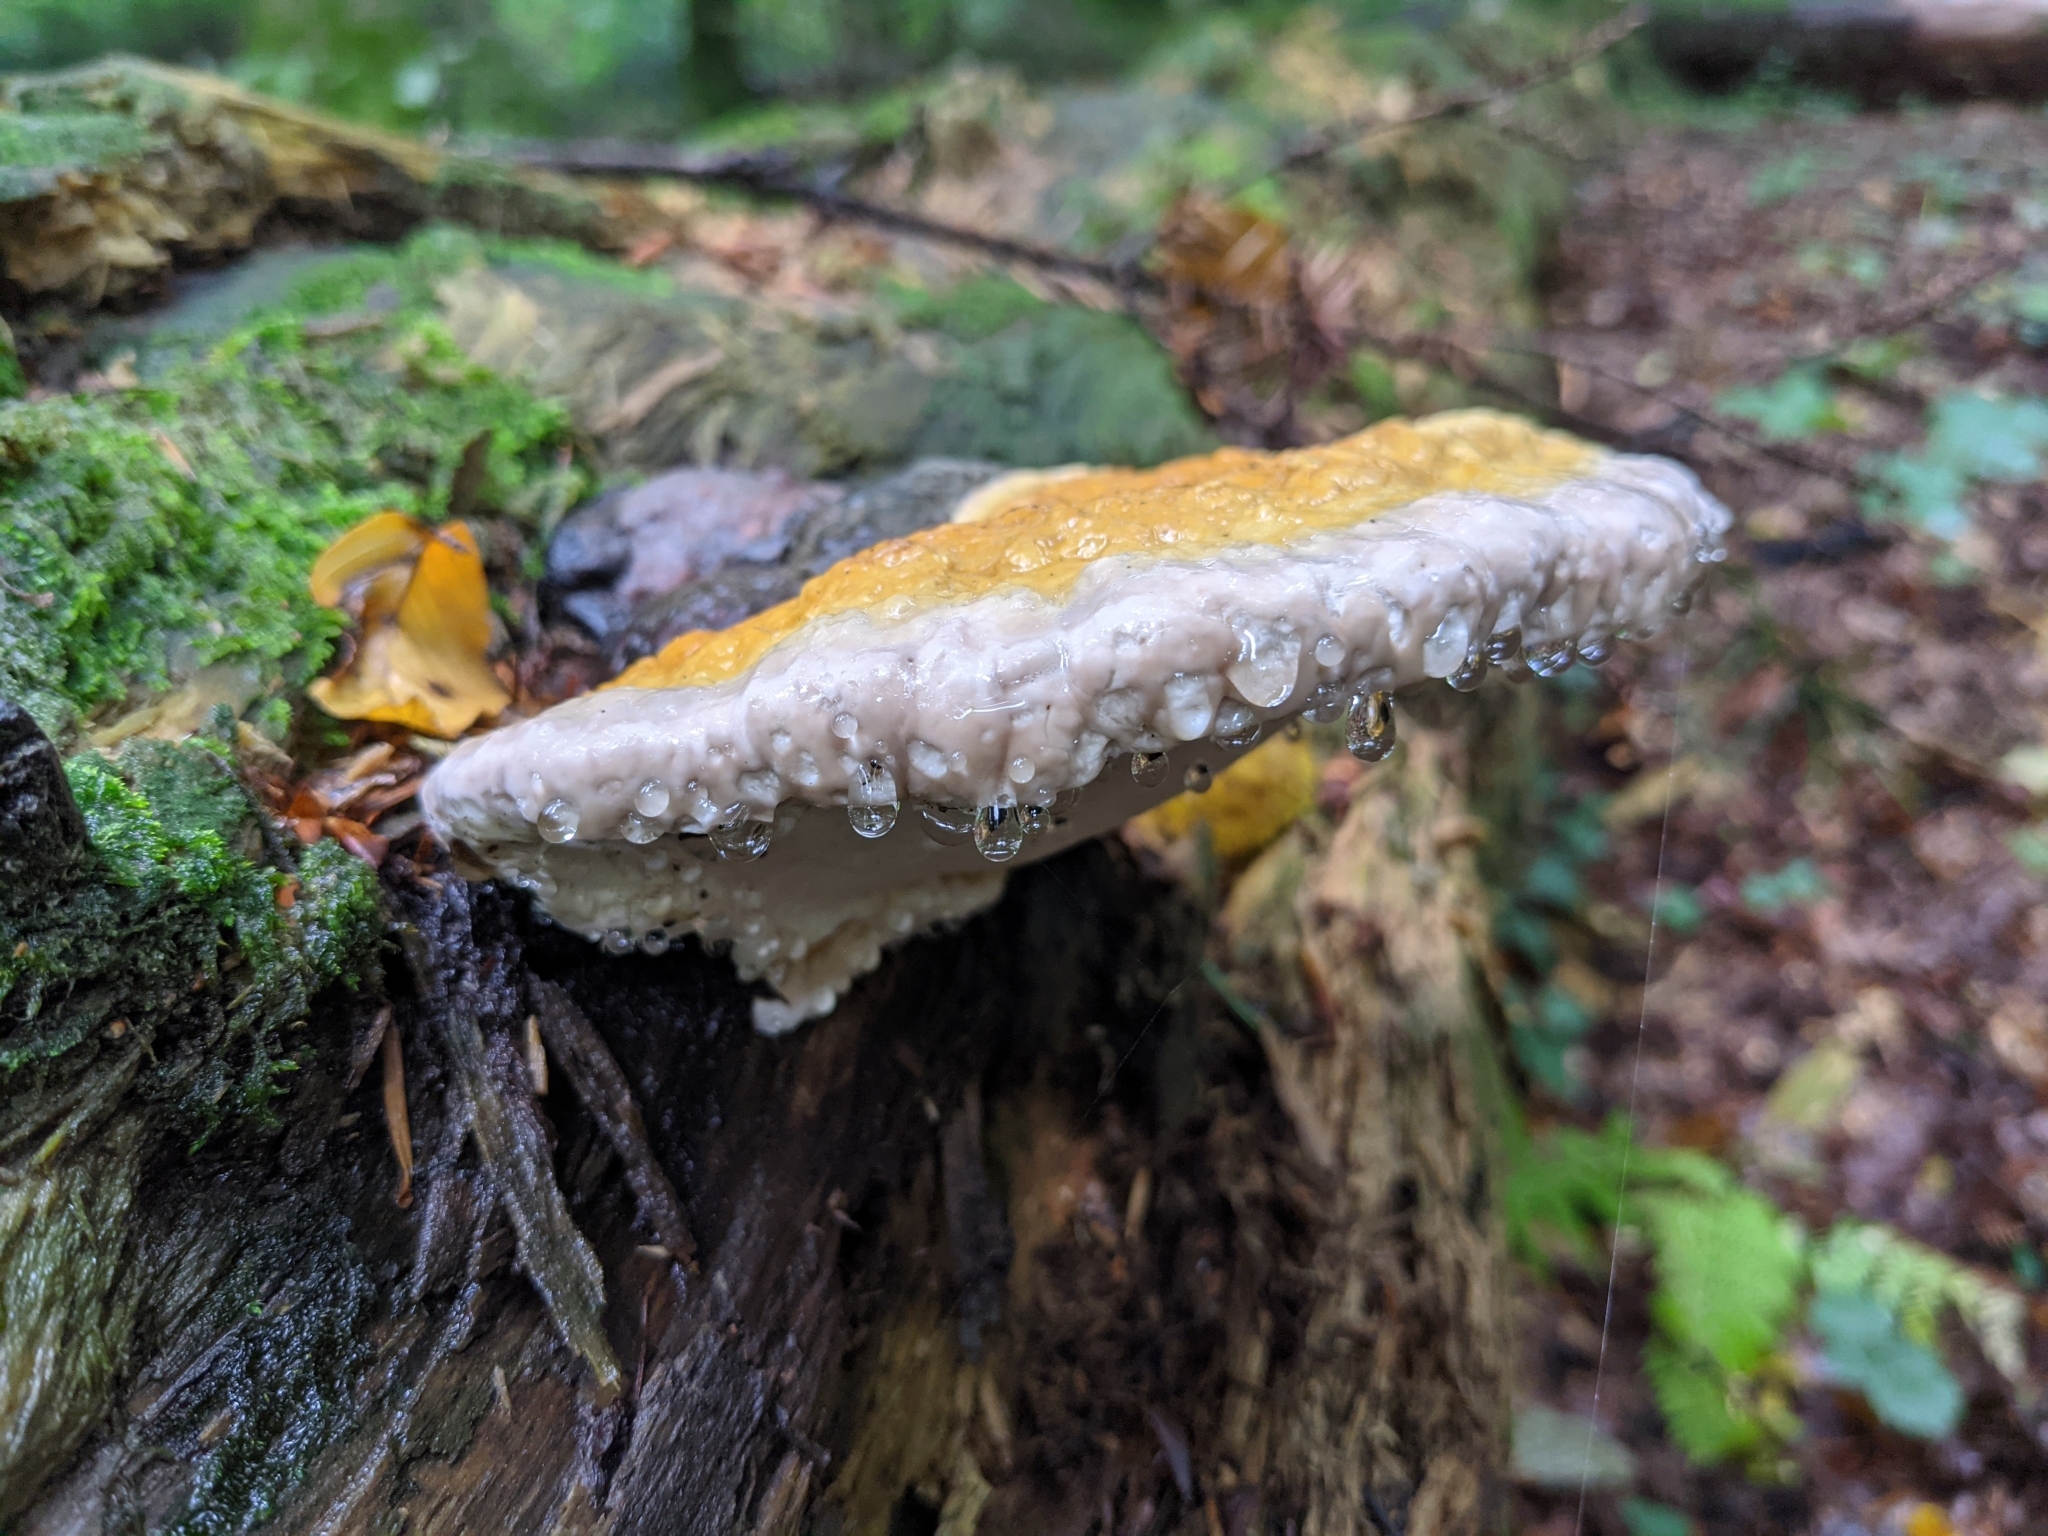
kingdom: Fungi
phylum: Basidiomycota
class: Agaricomycetes
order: Polyporales
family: Fomitopsidaceae
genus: Fomitopsis
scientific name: Fomitopsis pinicola
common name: Red-belted bracket
